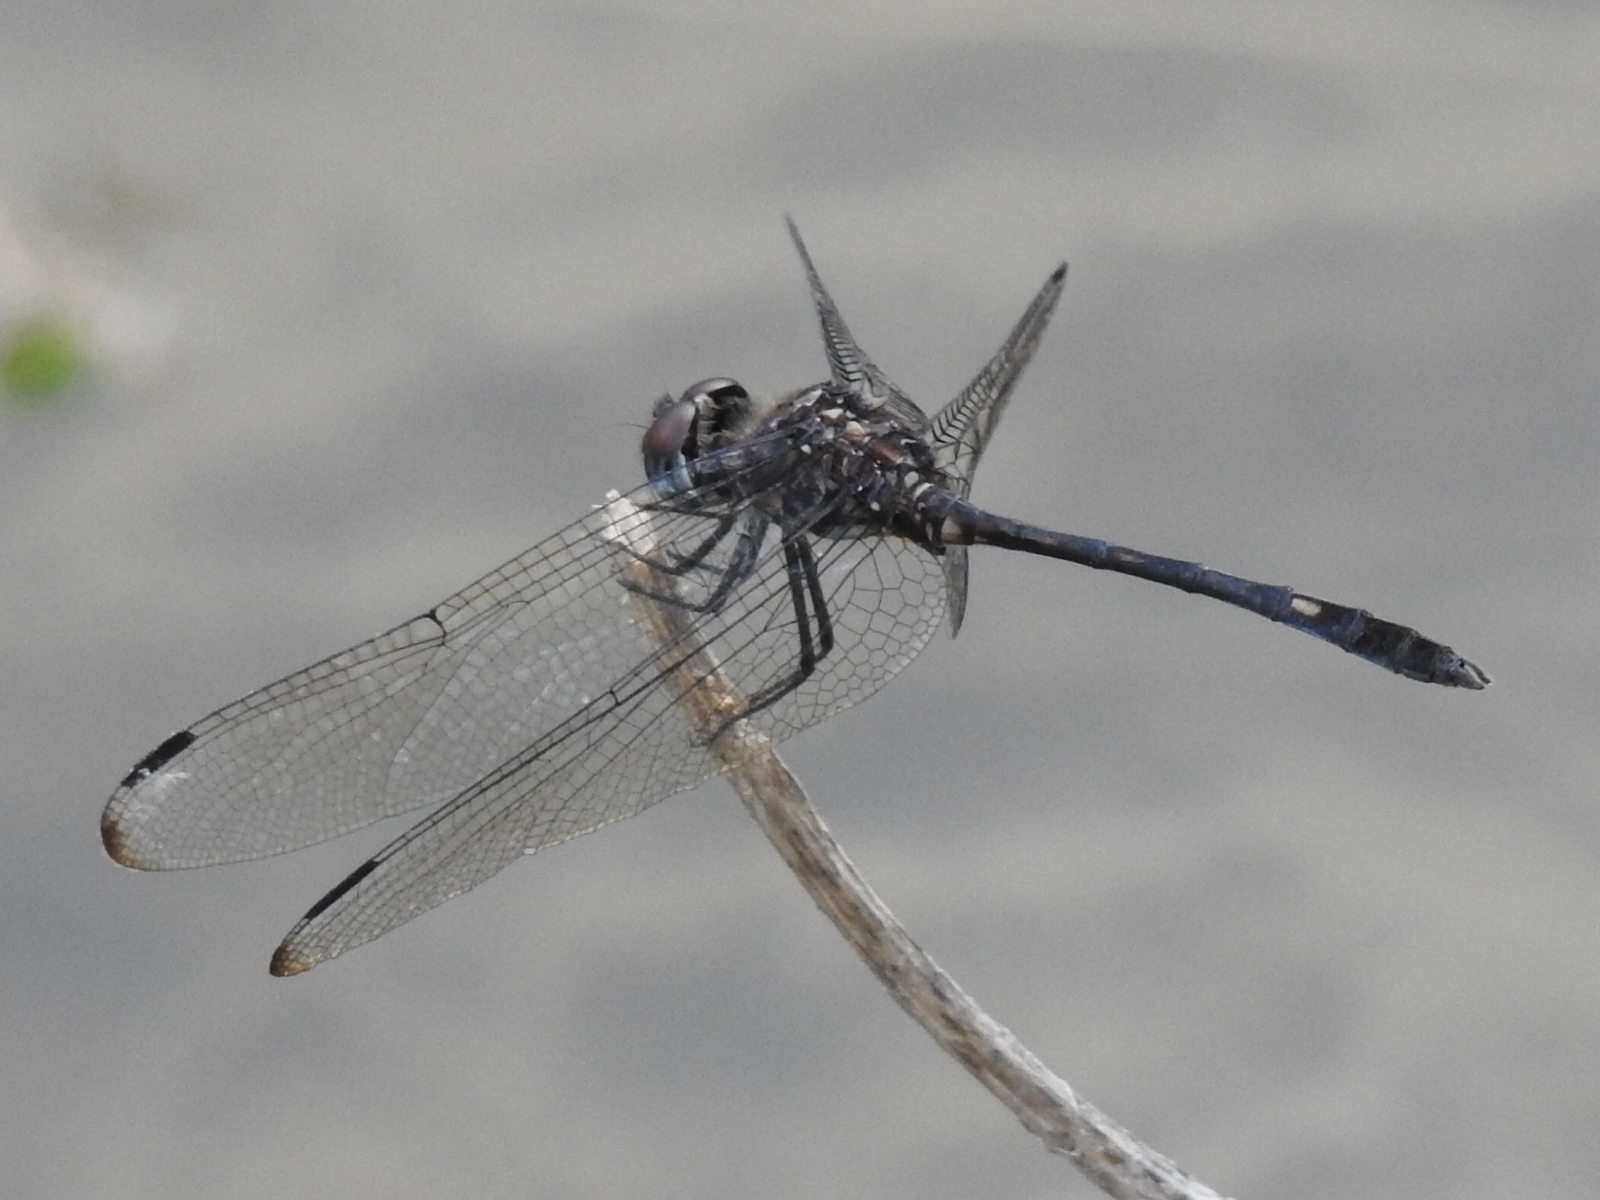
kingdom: Animalia
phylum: Arthropoda
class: Insecta
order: Odonata
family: Libellulidae
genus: Dythemis
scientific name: Dythemis velox
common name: Swift setwing
